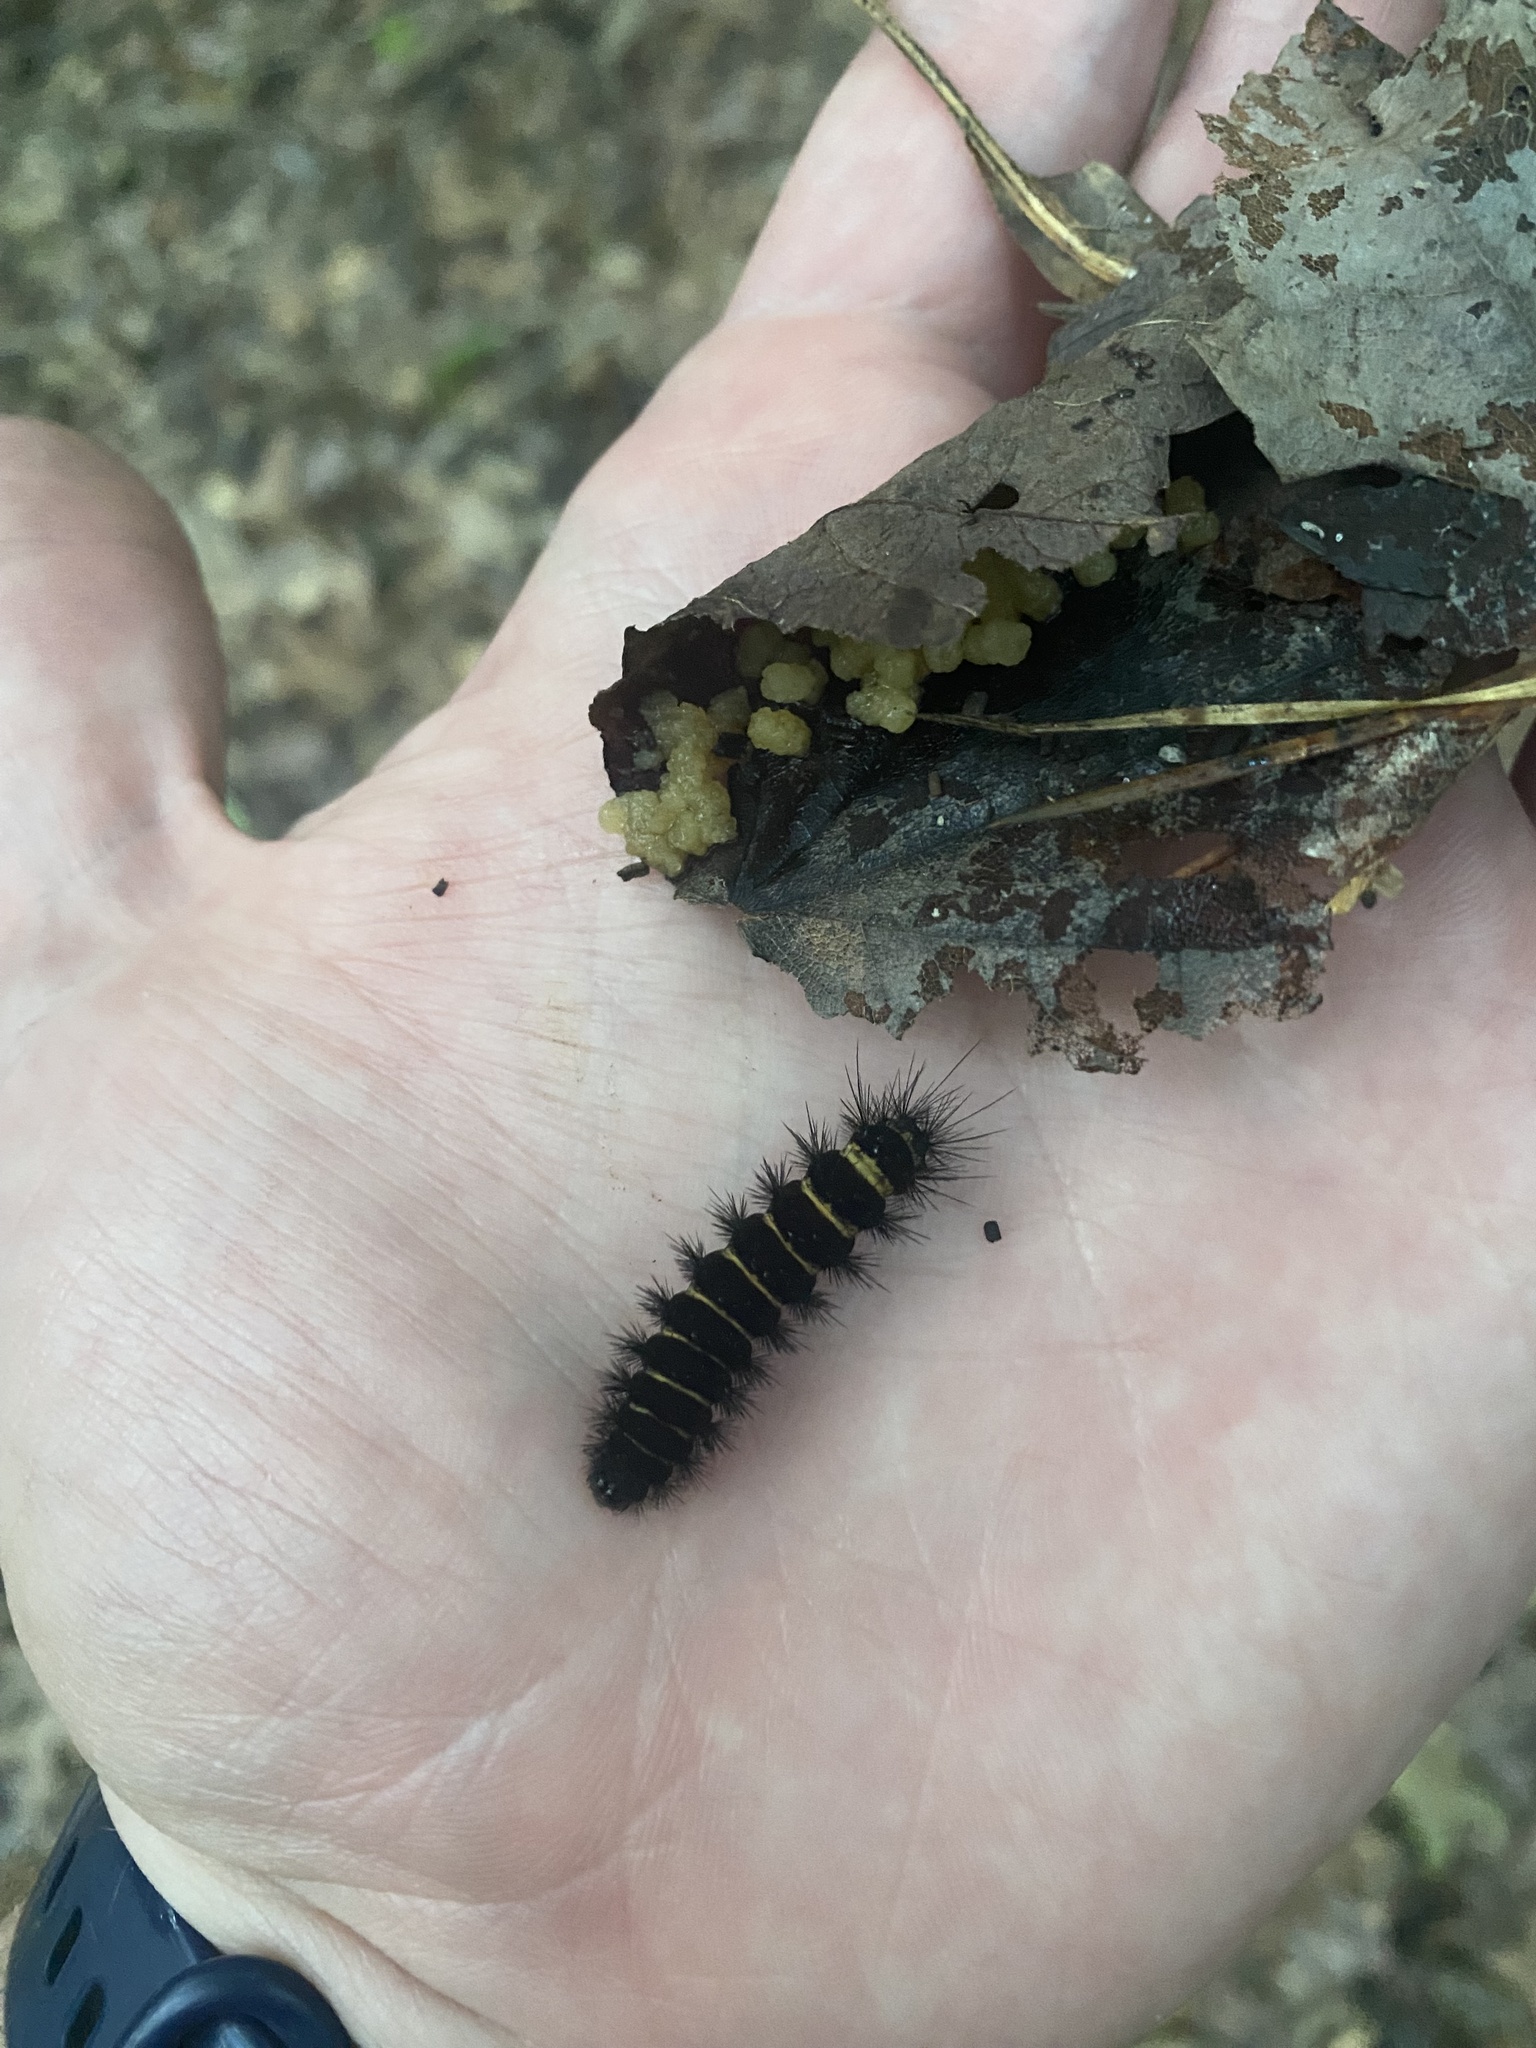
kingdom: Animalia
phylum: Arthropoda
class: Insecta
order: Lepidoptera
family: Erebidae
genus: Spilosoma
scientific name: Spilosoma congrua
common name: Agreeable tiger moth
